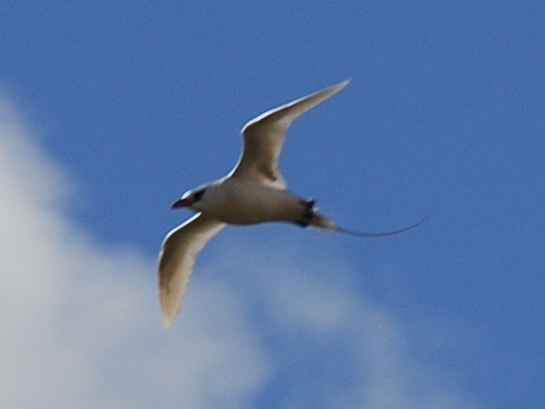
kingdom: Animalia
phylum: Chordata
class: Aves
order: Phaethontiformes
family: Phaethontidae
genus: Phaethon
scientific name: Phaethon rubricauda
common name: Red-tailed tropicbird
